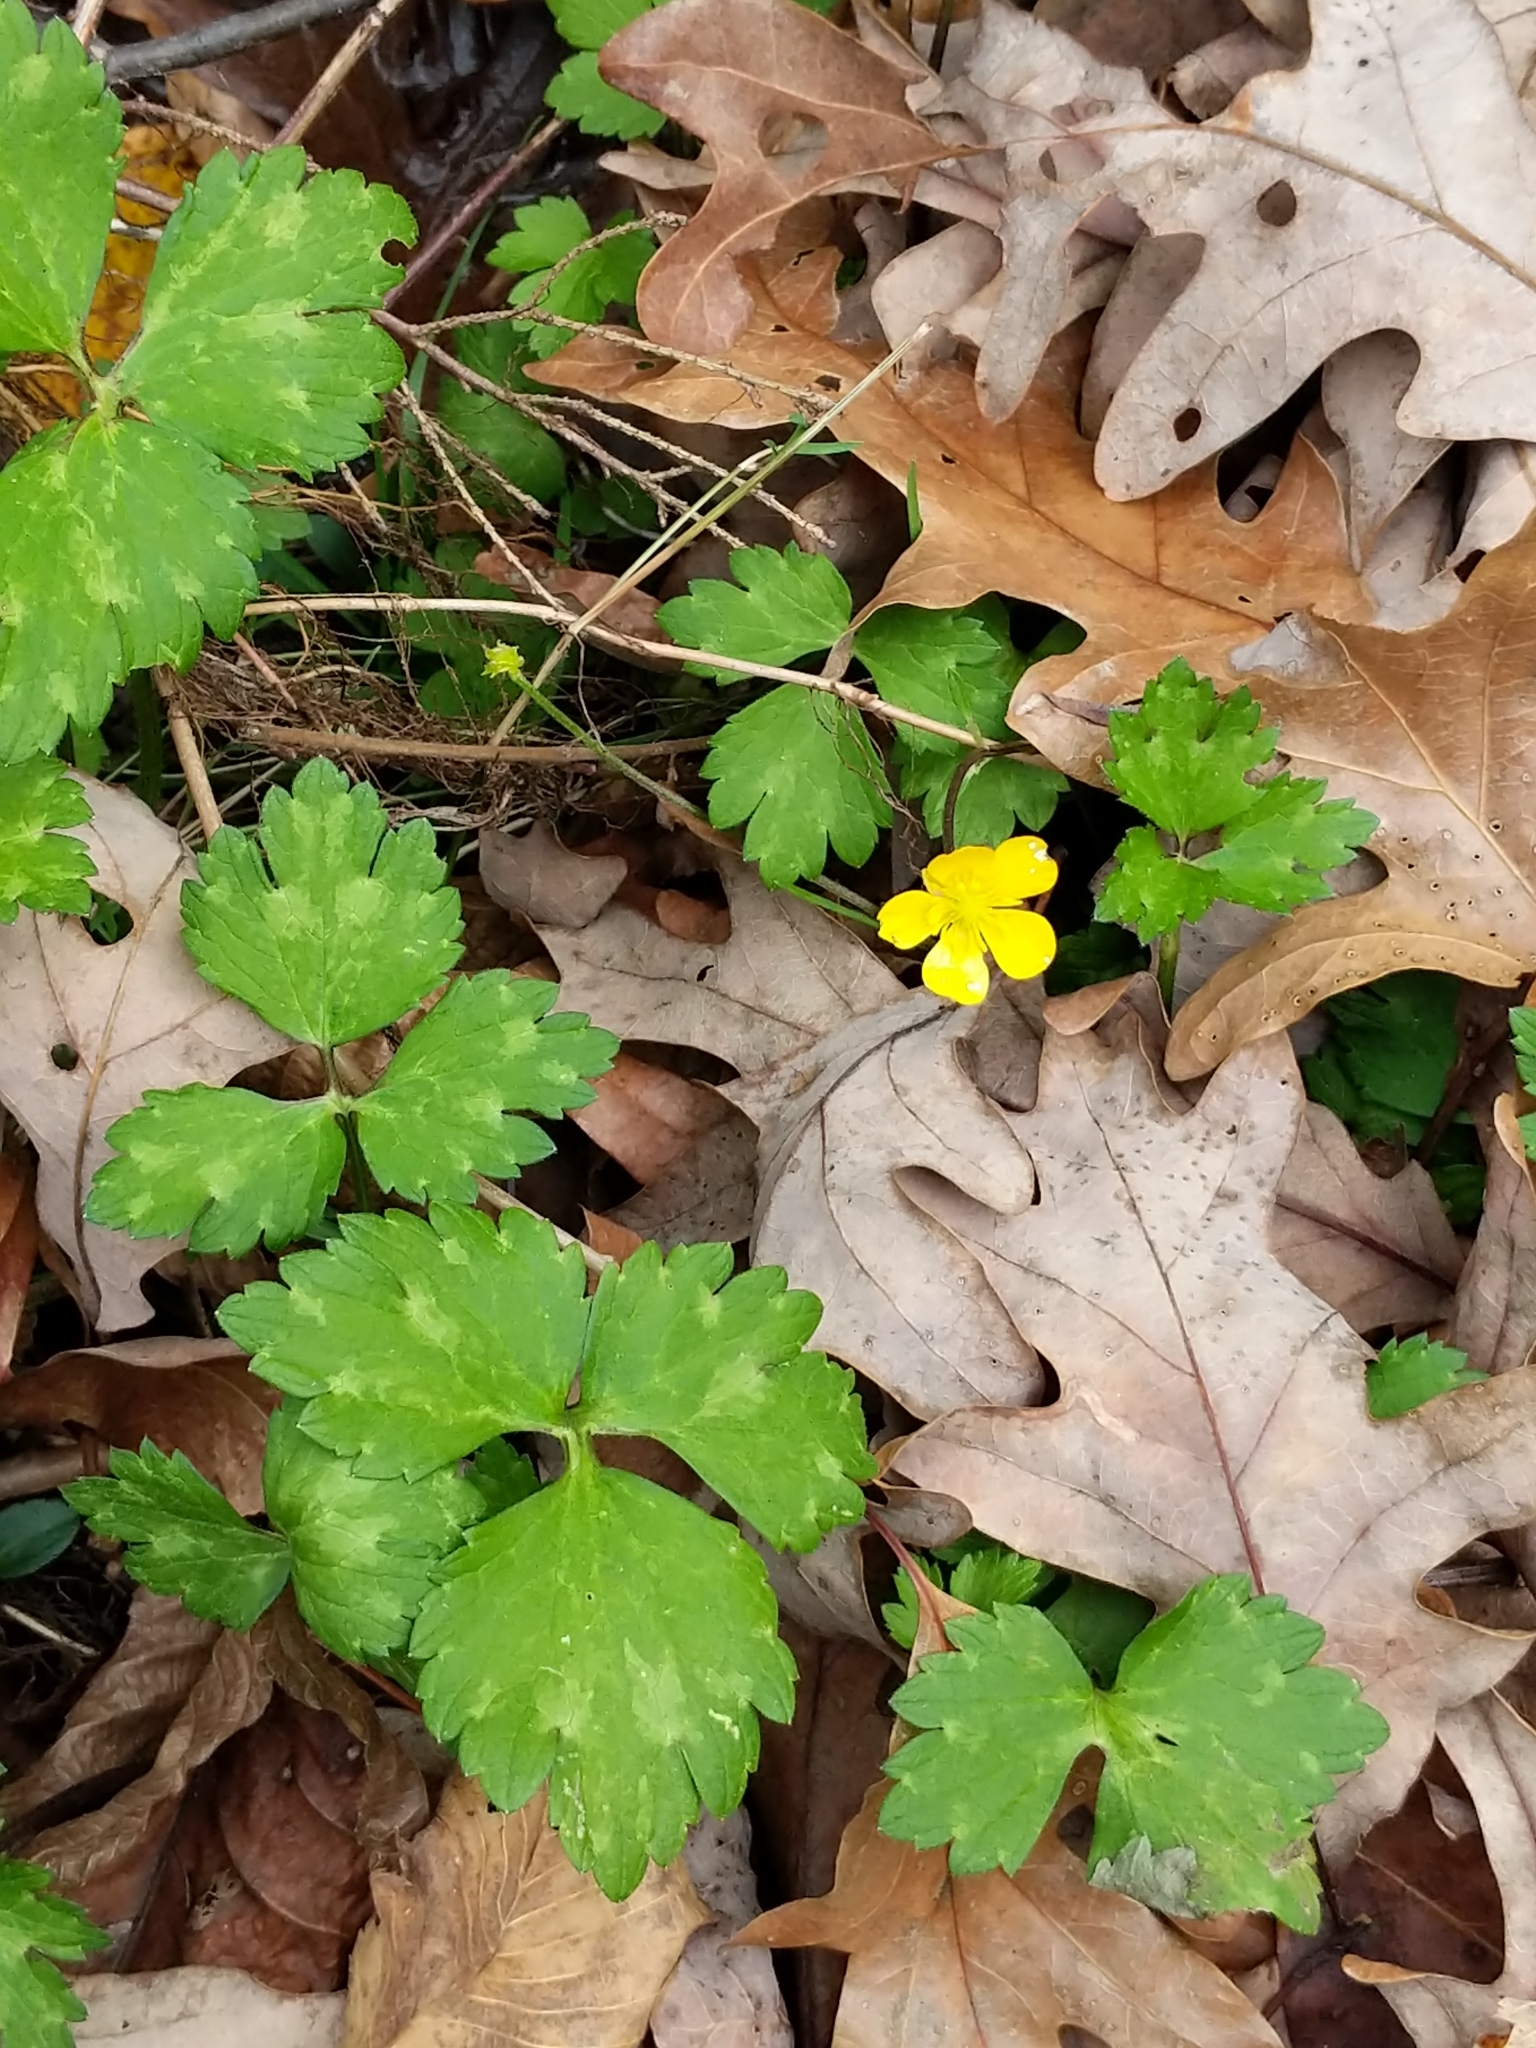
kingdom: Plantae
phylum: Tracheophyta
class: Magnoliopsida
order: Ranunculales
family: Ranunculaceae
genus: Ranunculus
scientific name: Ranunculus repens
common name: Creeping buttercup
